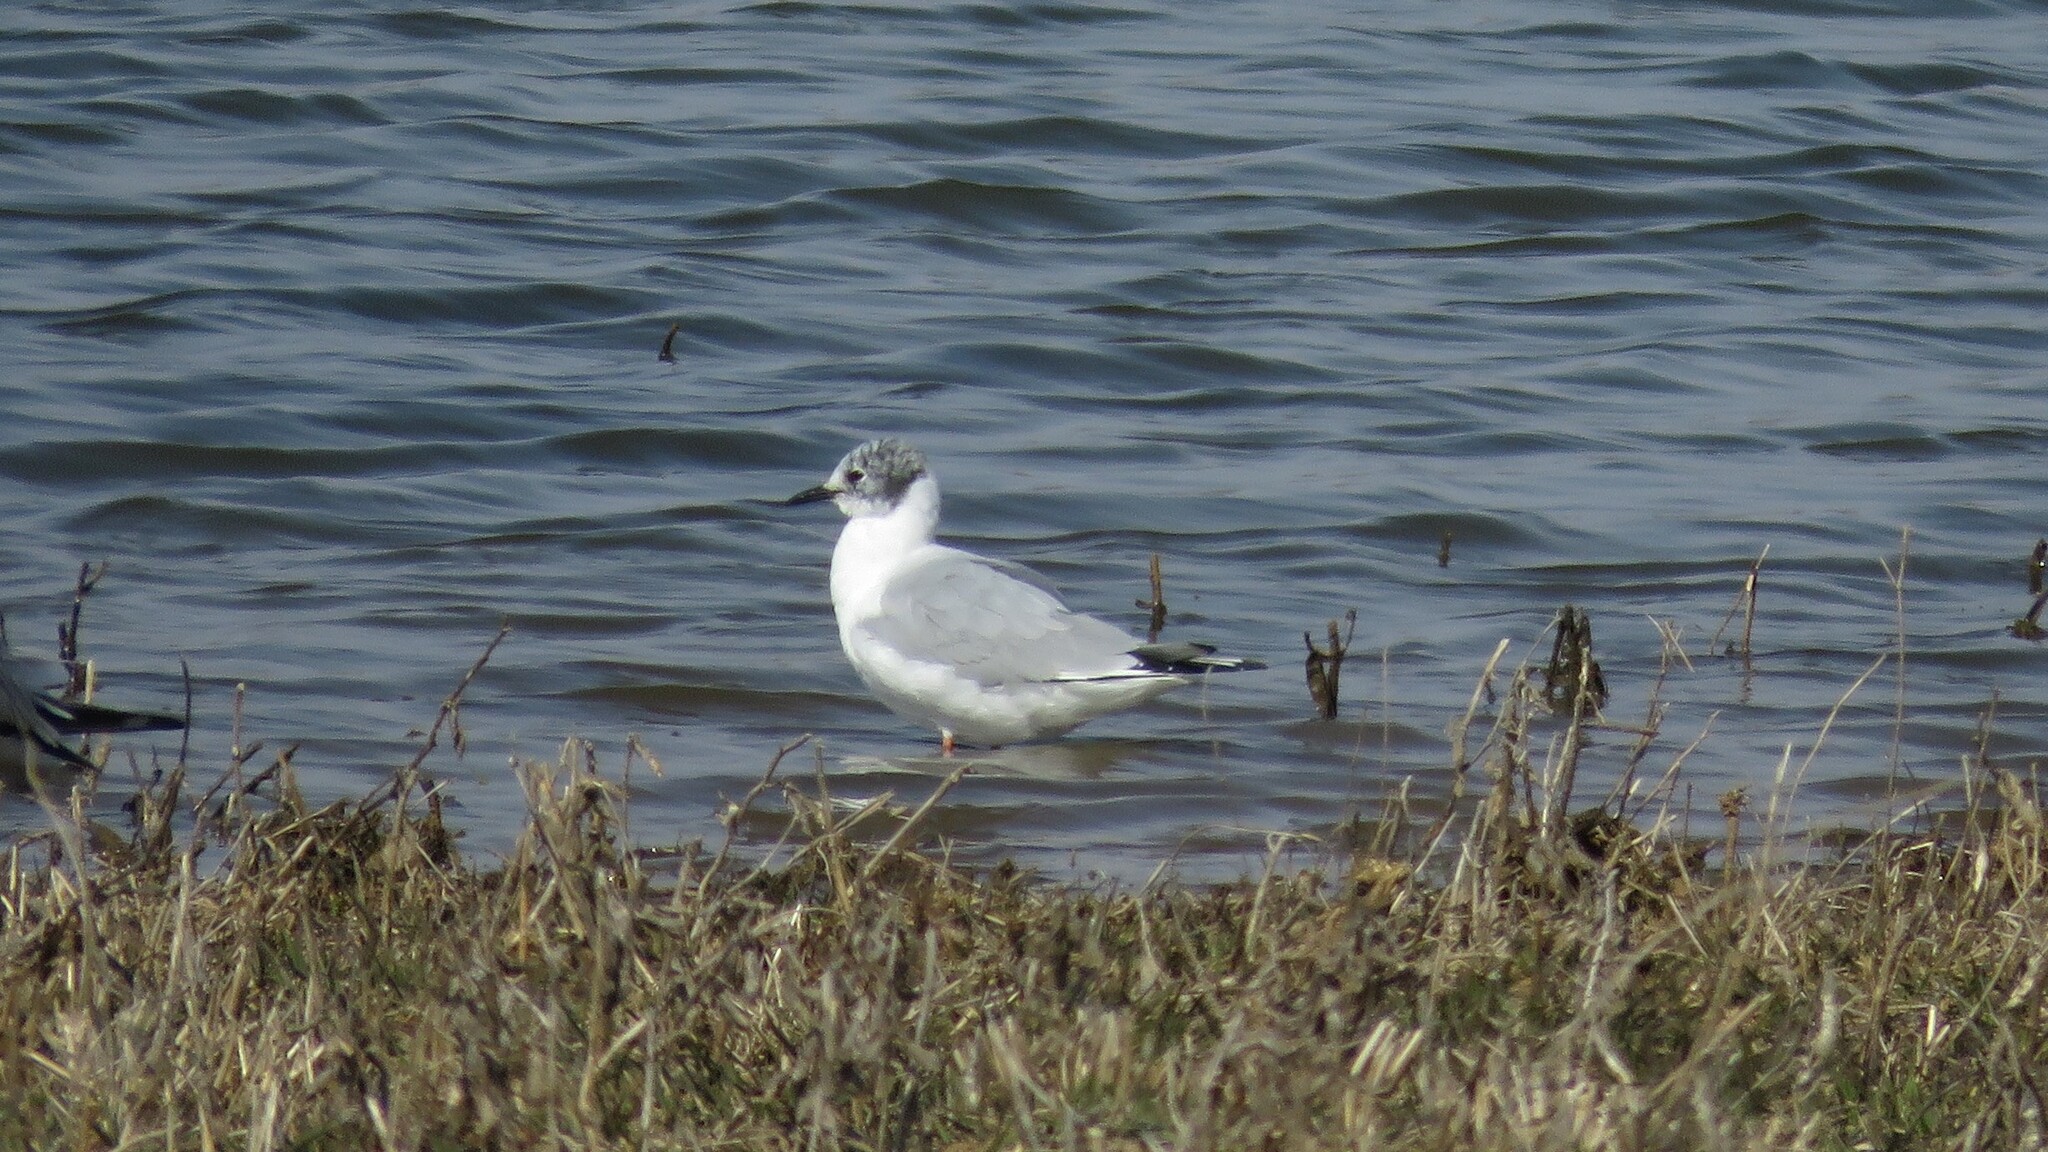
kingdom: Animalia
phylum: Chordata
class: Aves
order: Charadriiformes
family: Laridae
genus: Chroicocephalus
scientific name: Chroicocephalus philadelphia
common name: Bonaparte's gull
